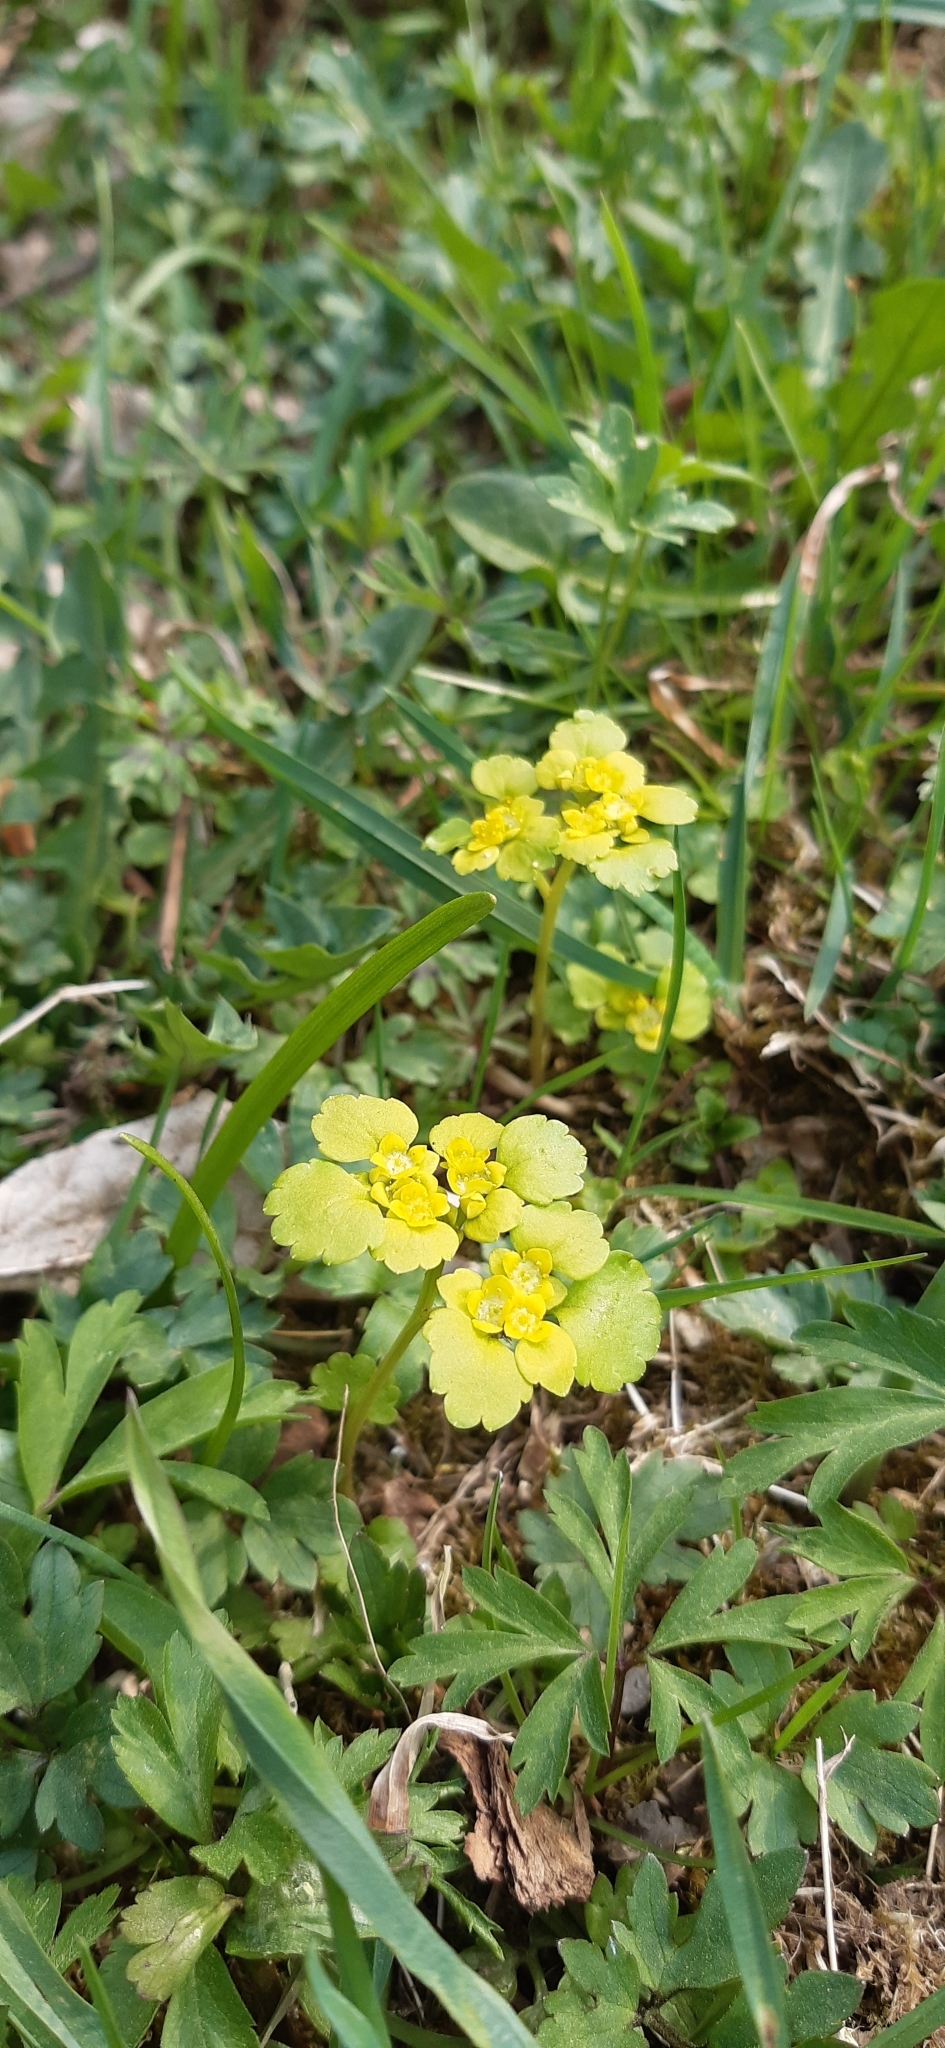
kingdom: Plantae
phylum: Tracheophyta
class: Magnoliopsida
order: Saxifragales
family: Saxifragaceae
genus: Chrysosplenium
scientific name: Chrysosplenium alternifolium
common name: Alternate-leaved golden-saxifrage
